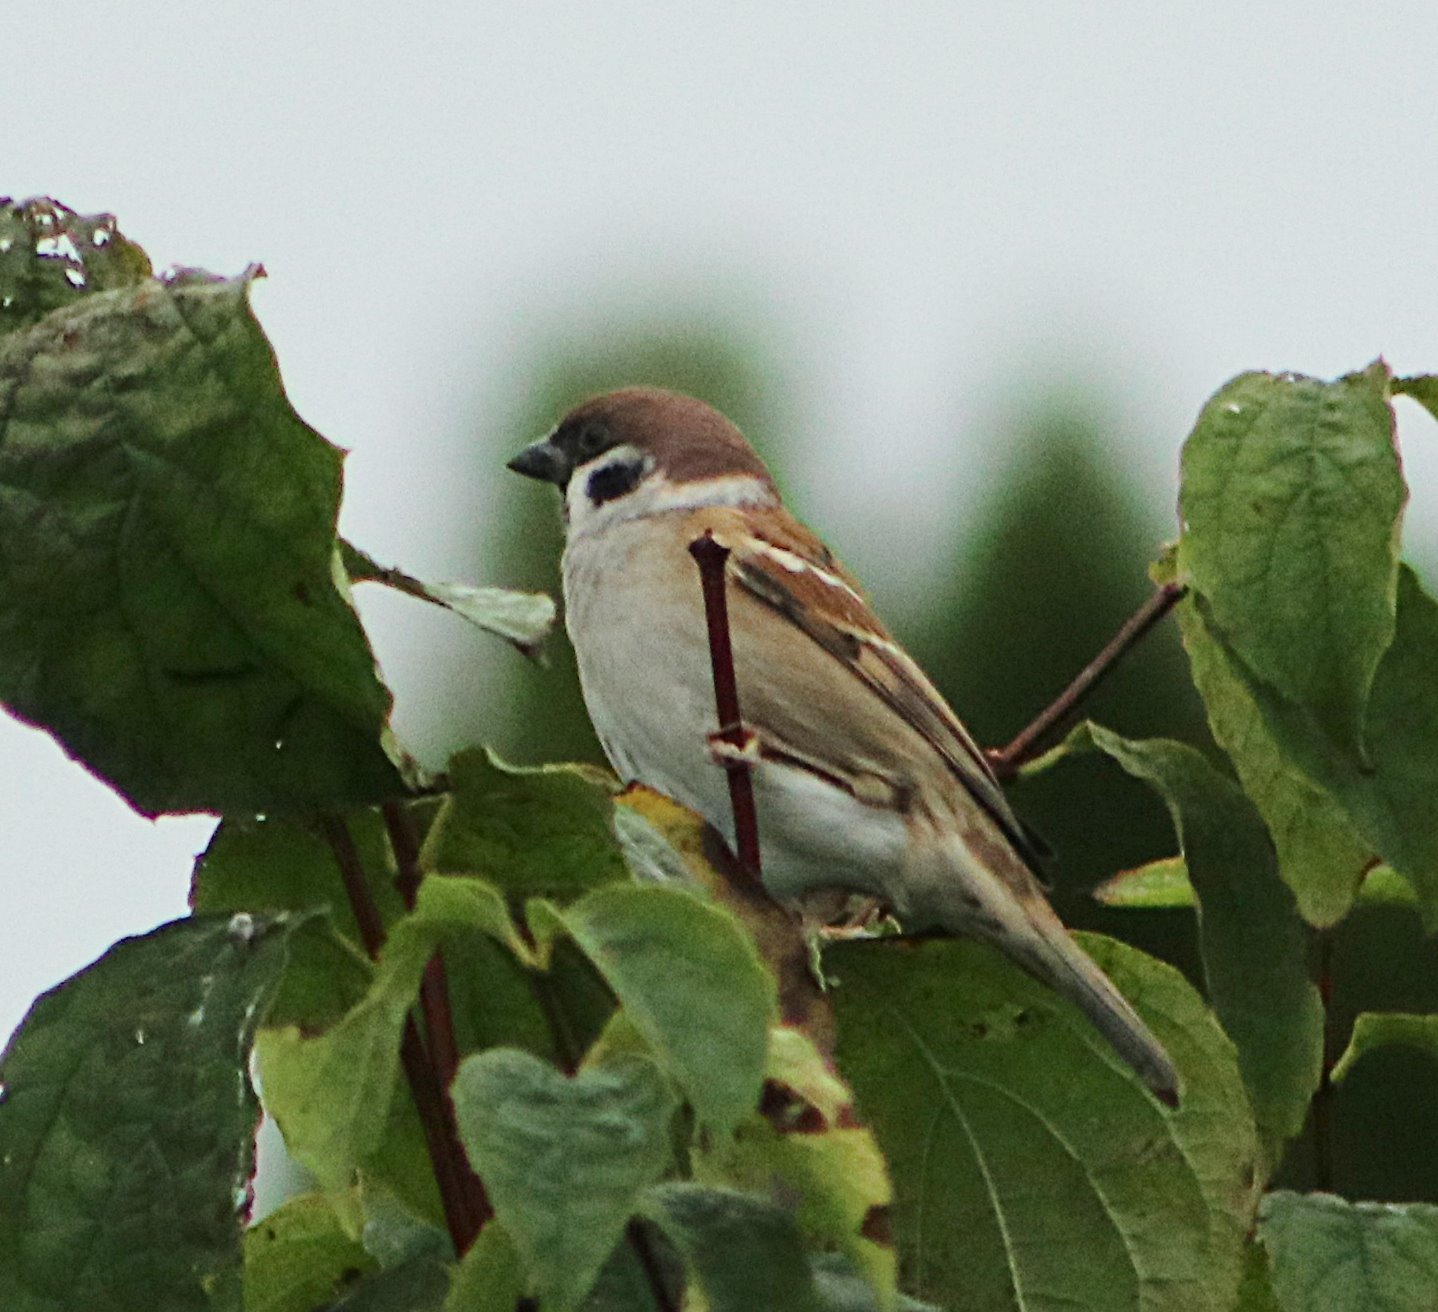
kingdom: Animalia
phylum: Chordata
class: Aves
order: Passeriformes
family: Passeridae
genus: Passer
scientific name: Passer montanus
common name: Eurasian tree sparrow
